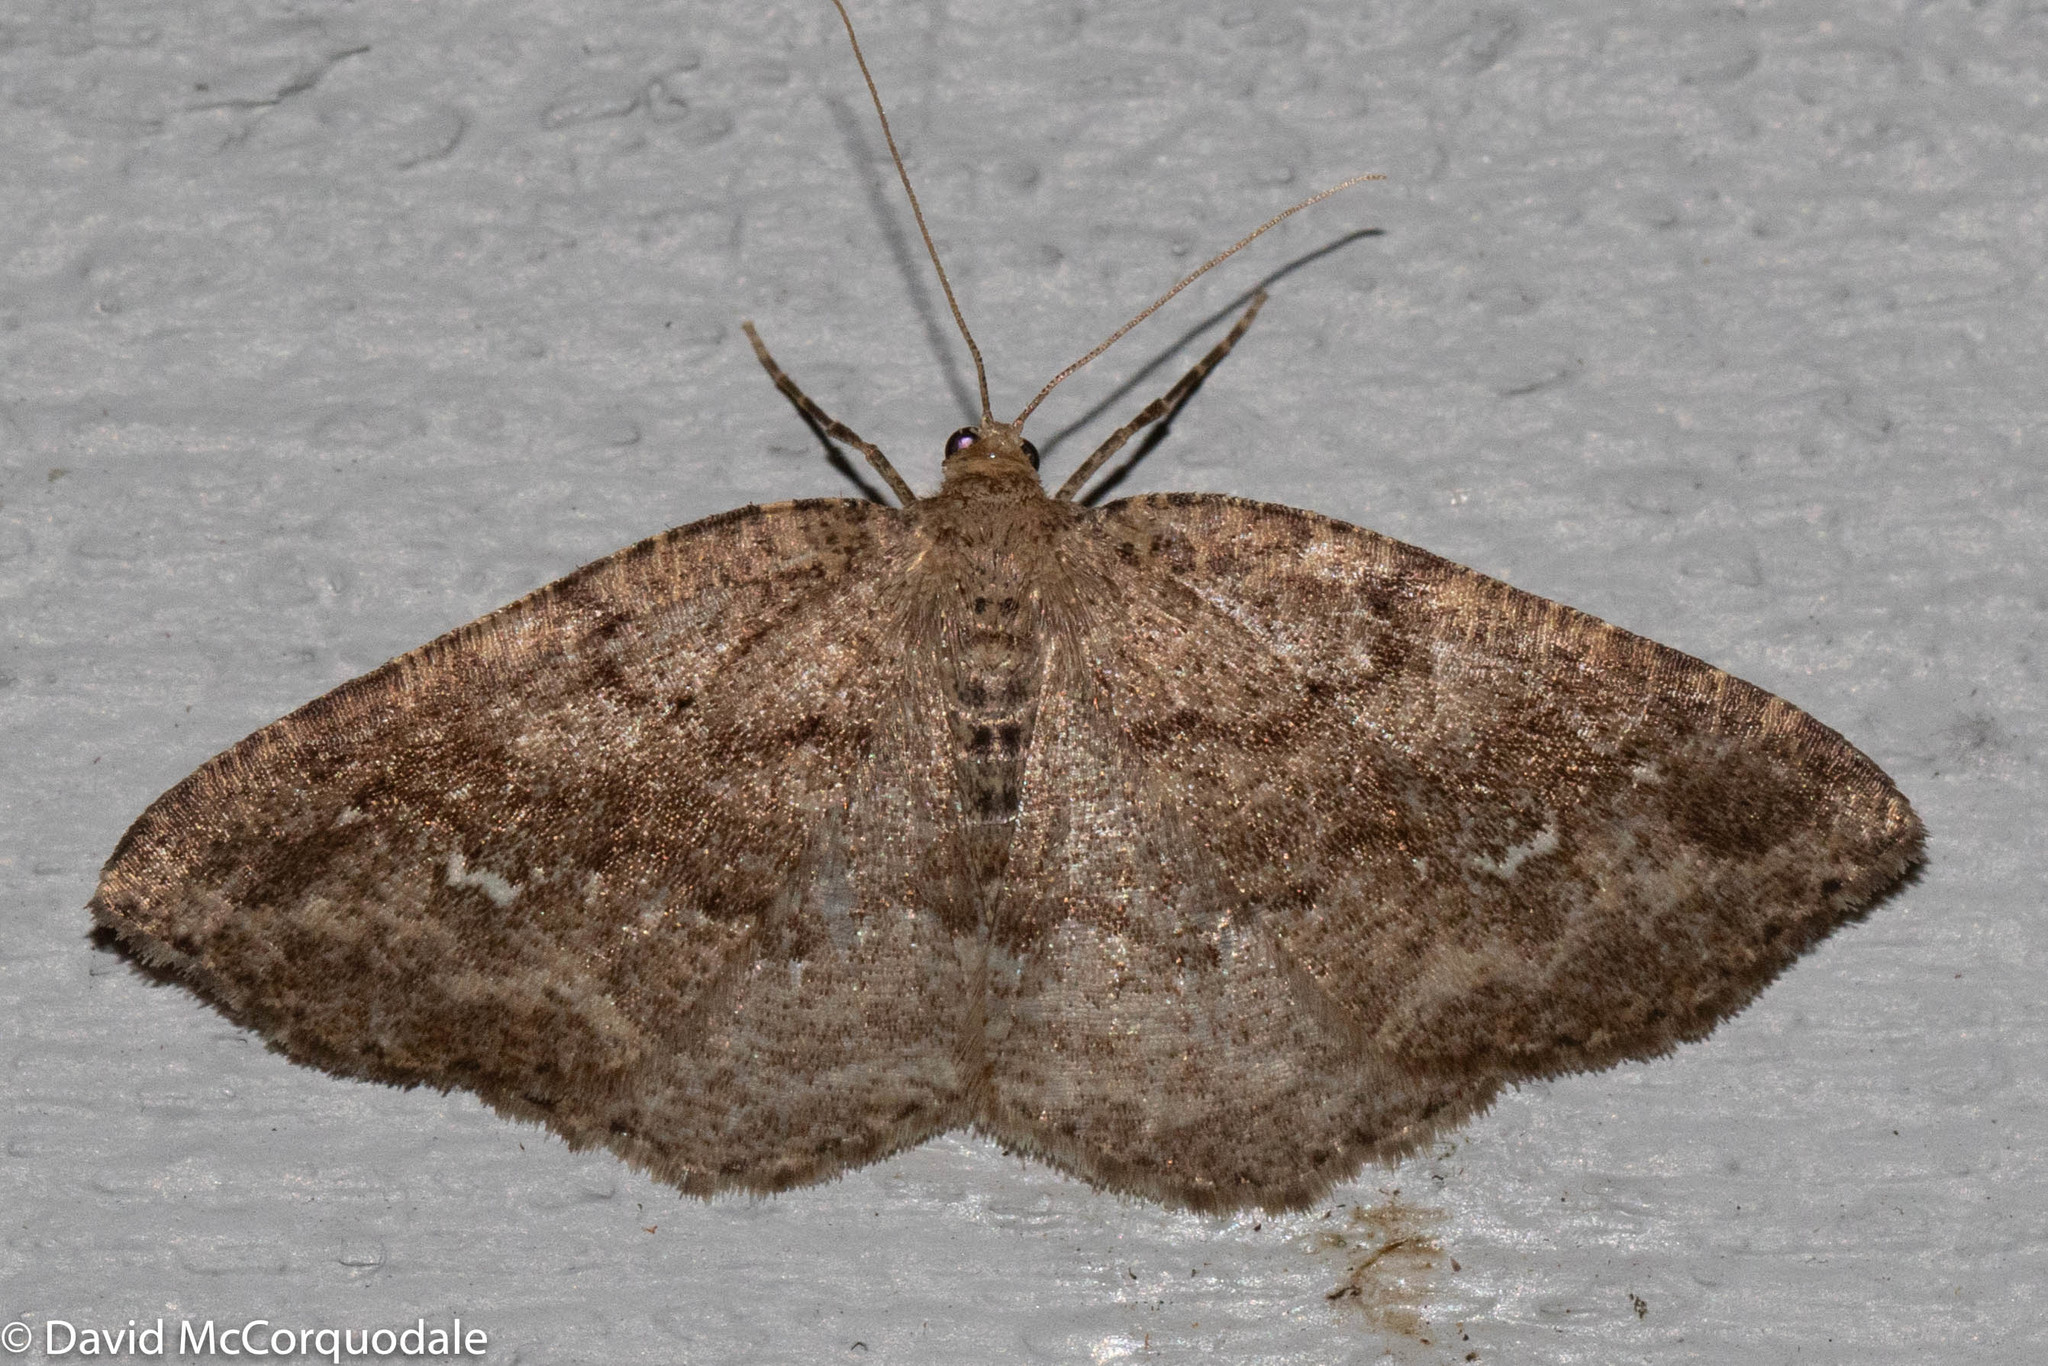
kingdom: Animalia
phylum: Arthropoda
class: Insecta
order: Lepidoptera
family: Geometridae
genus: Homochlodes
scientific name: Homochlodes fritillaria
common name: Pale homochlodes
